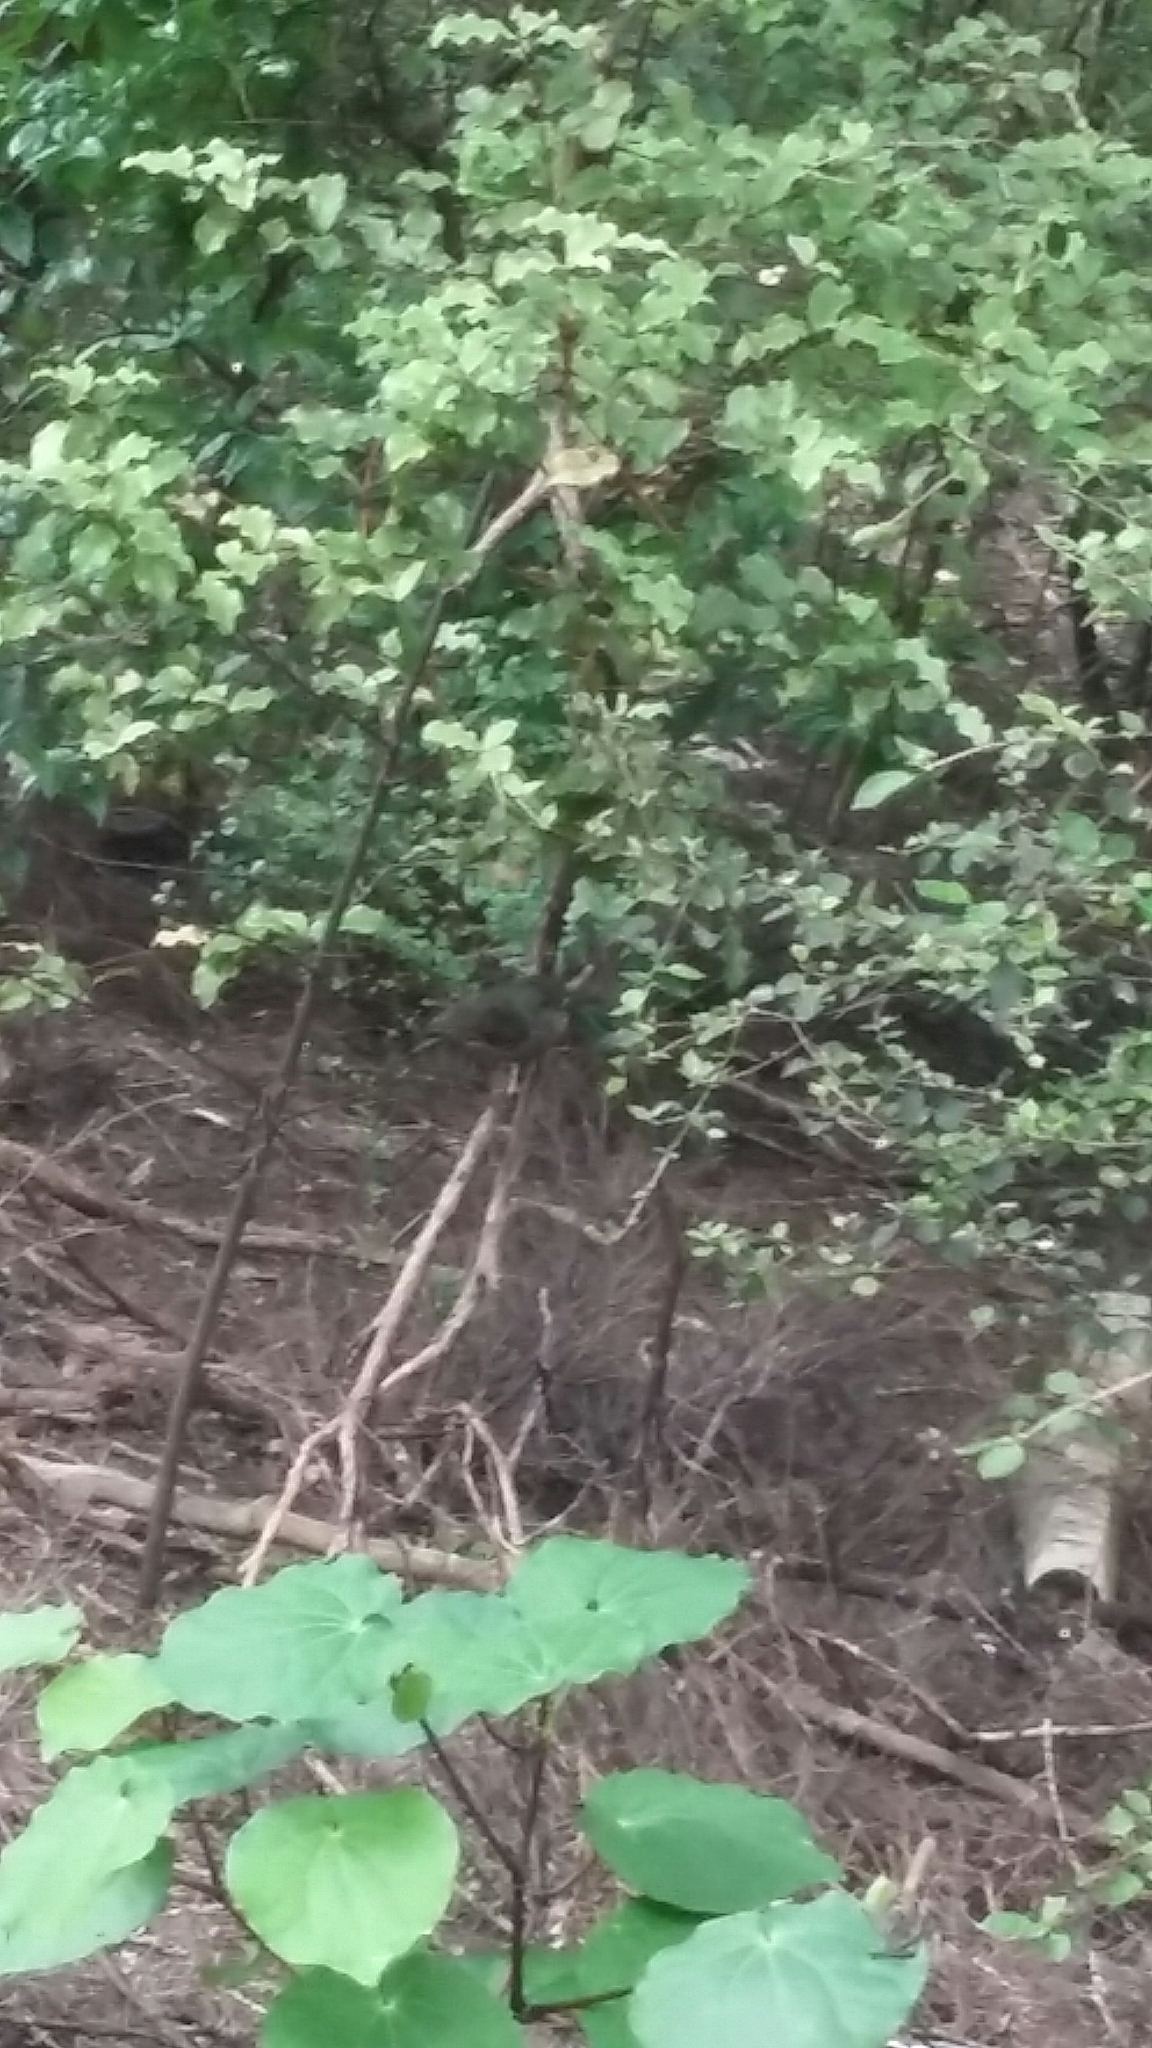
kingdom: Animalia
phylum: Chordata
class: Aves
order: Passeriformes
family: Petroicidae
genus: Petroica
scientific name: Petroica australis
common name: New zealand robin
